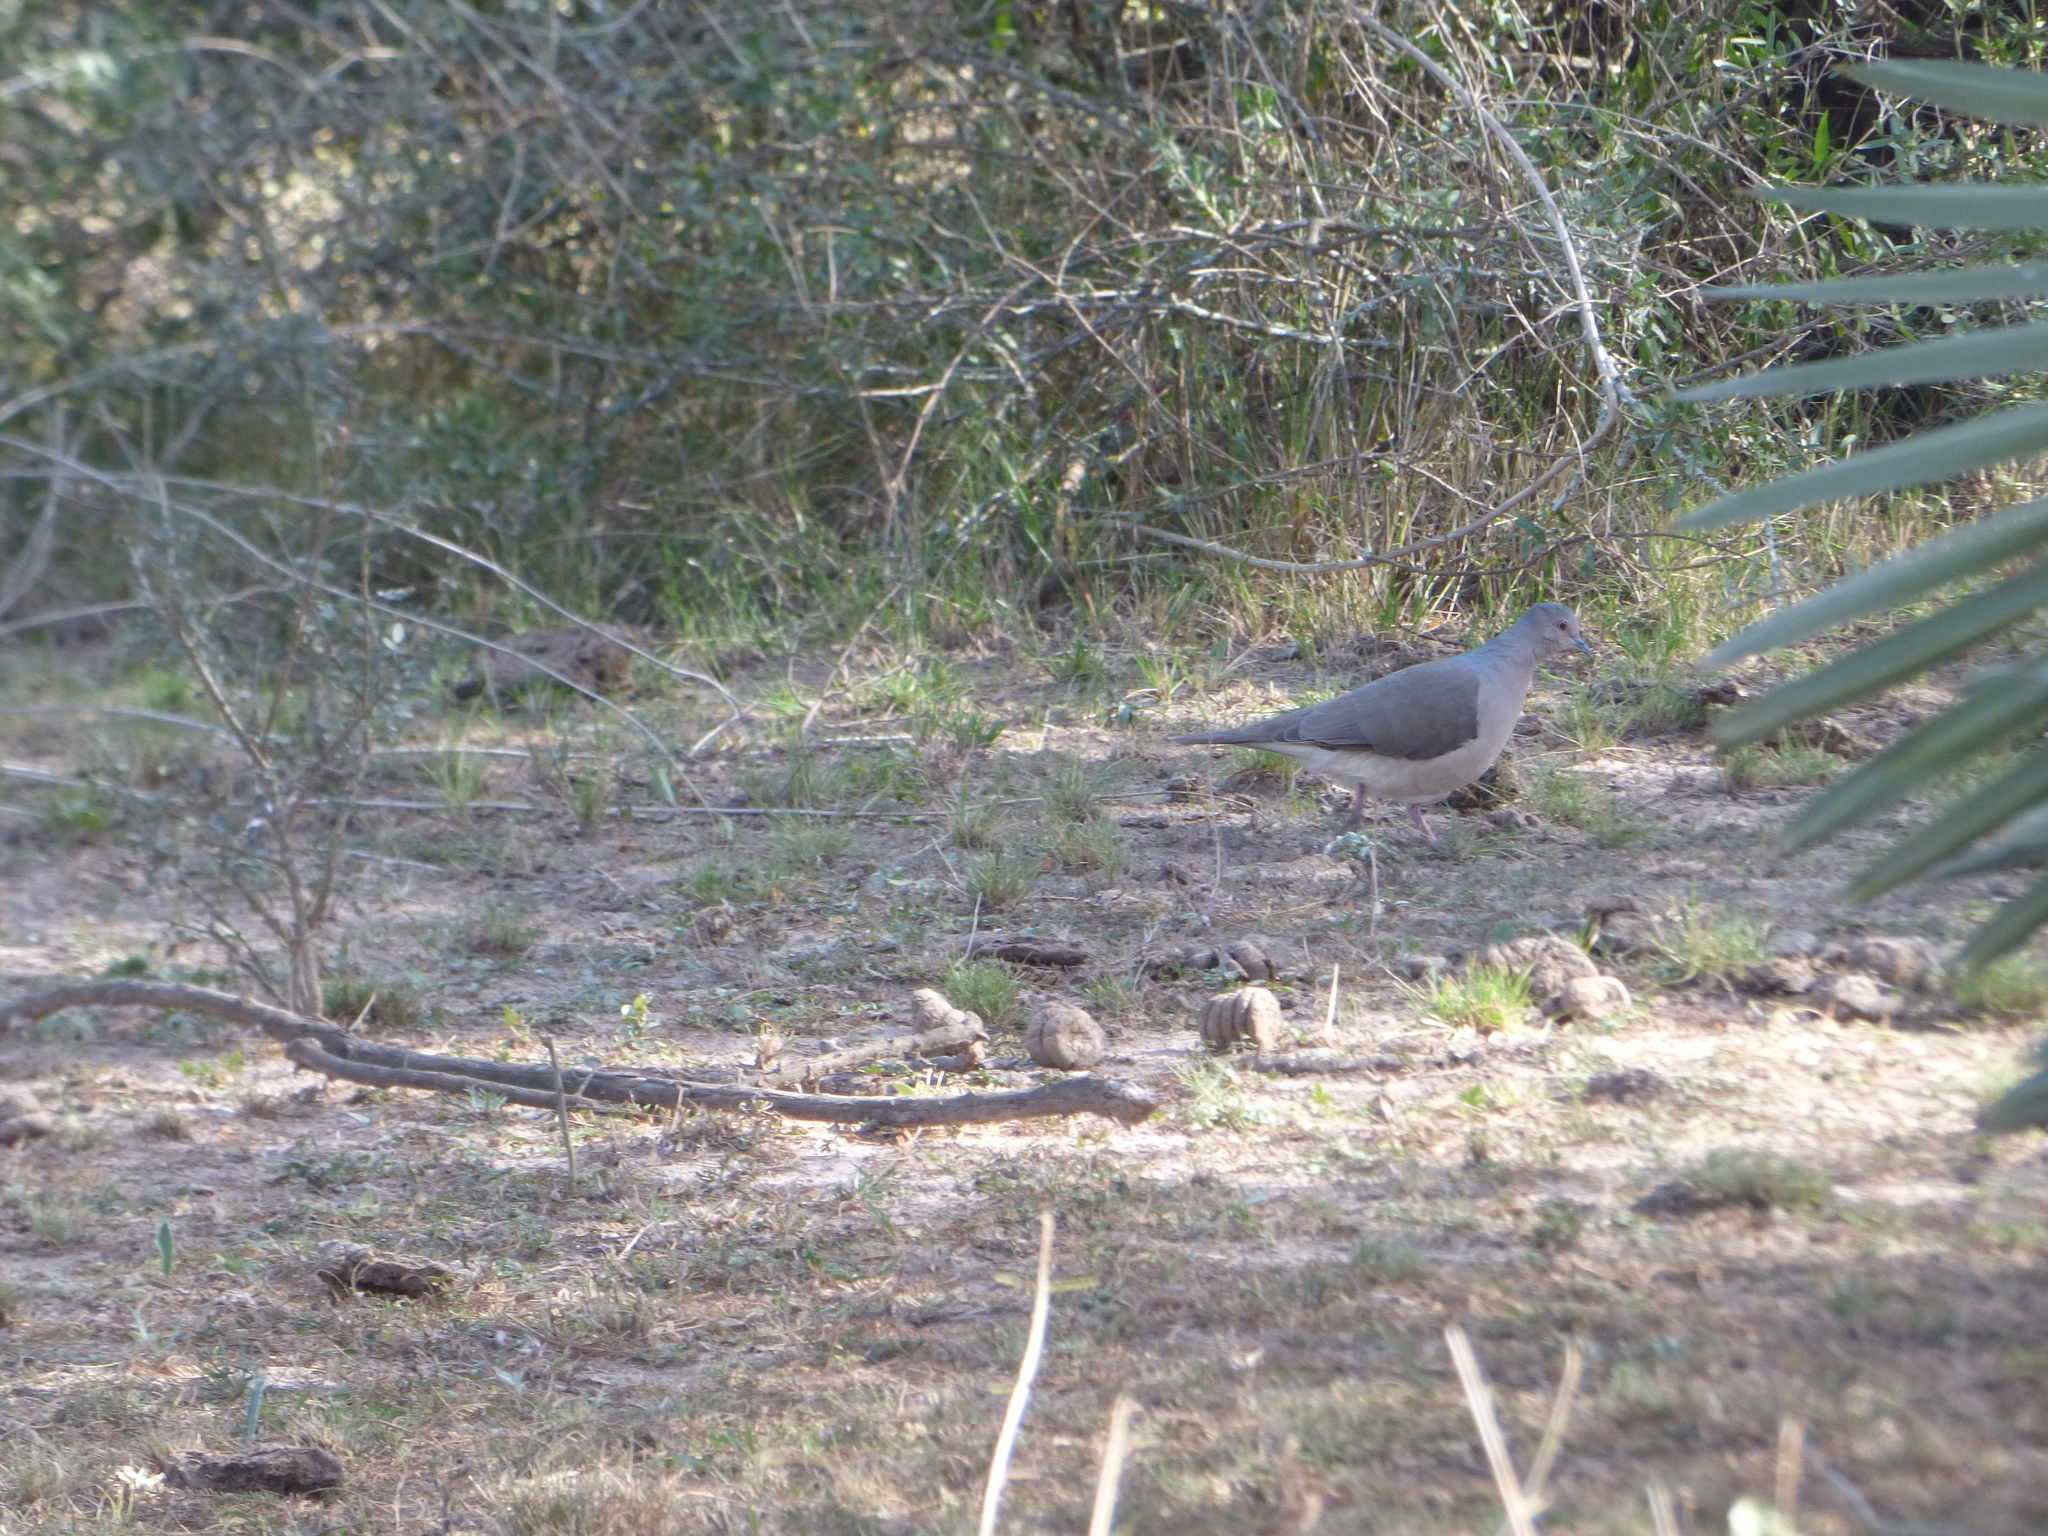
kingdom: Animalia
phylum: Chordata
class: Aves
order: Columbiformes
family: Columbidae
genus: Leptotila
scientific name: Leptotila verreauxi
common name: White-tipped dove
